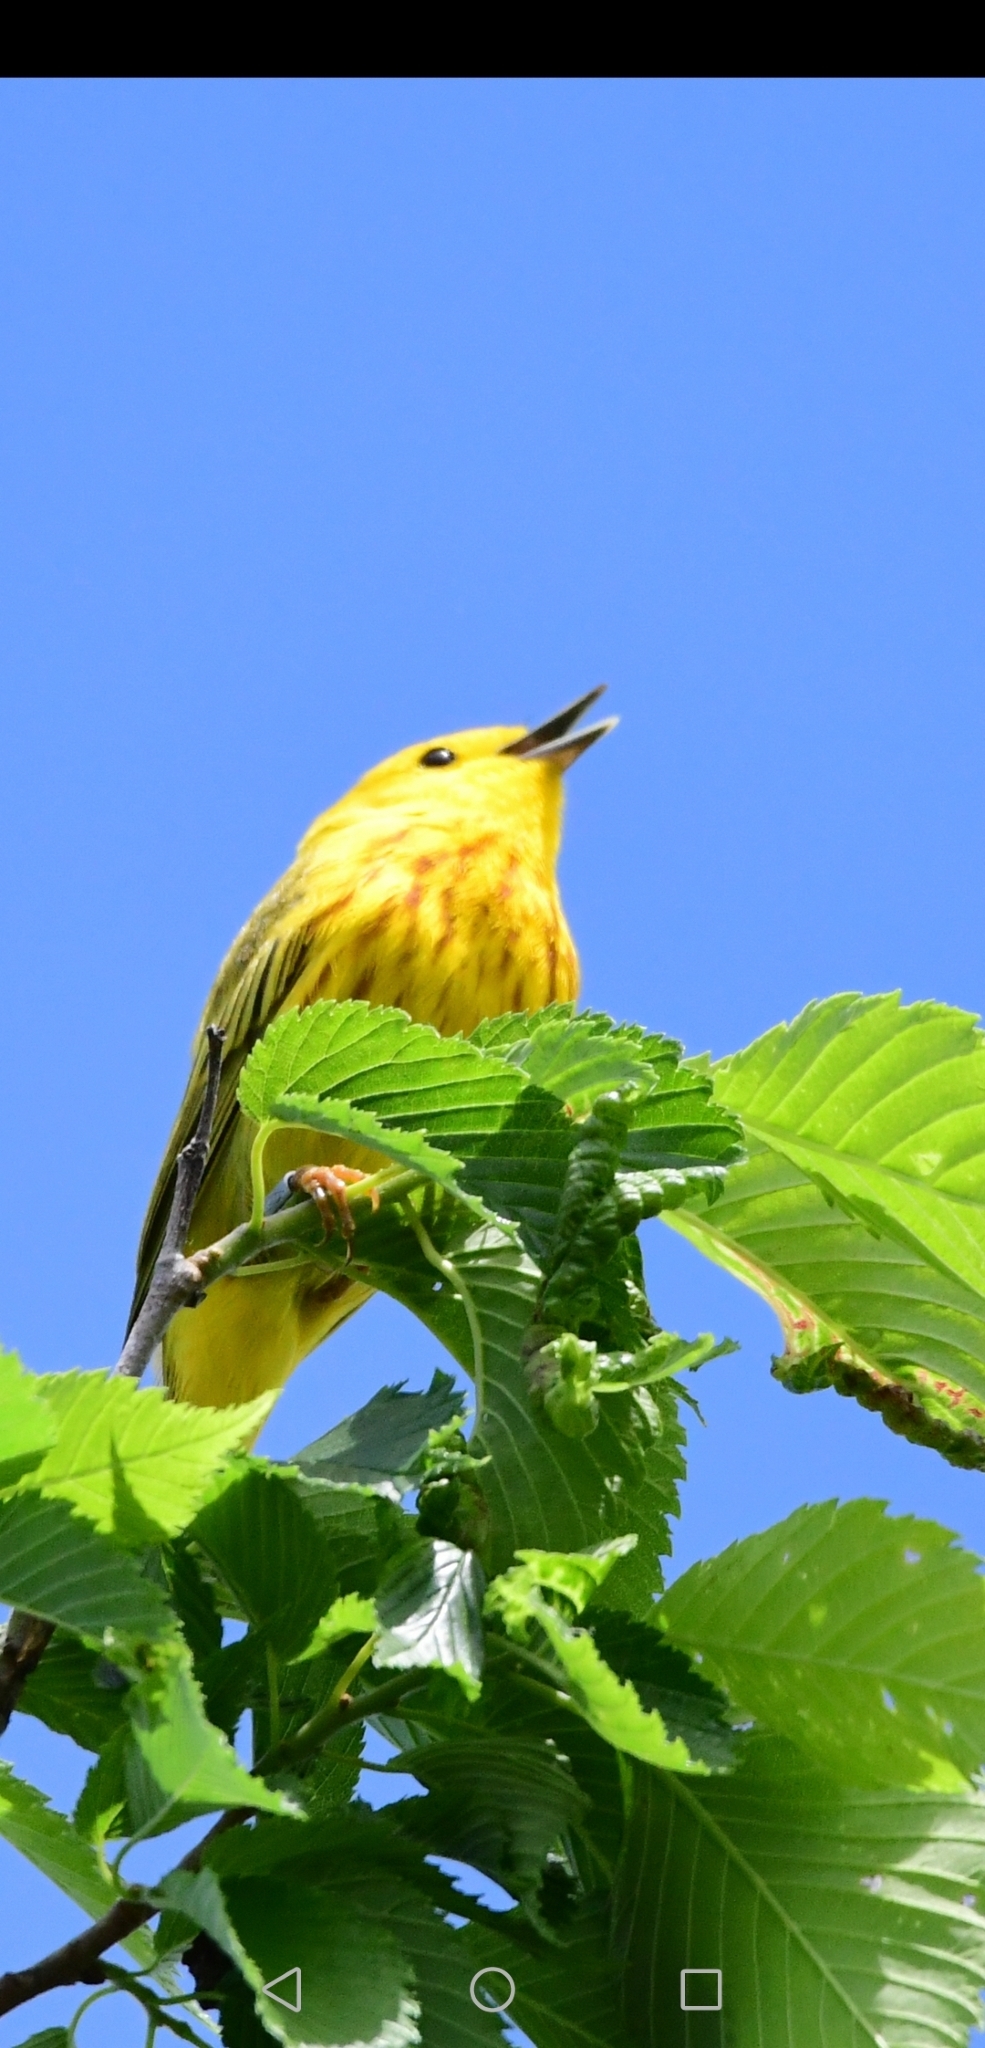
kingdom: Animalia
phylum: Chordata
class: Aves
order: Passeriformes
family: Parulidae
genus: Setophaga
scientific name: Setophaga petechia
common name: Yellow warbler
